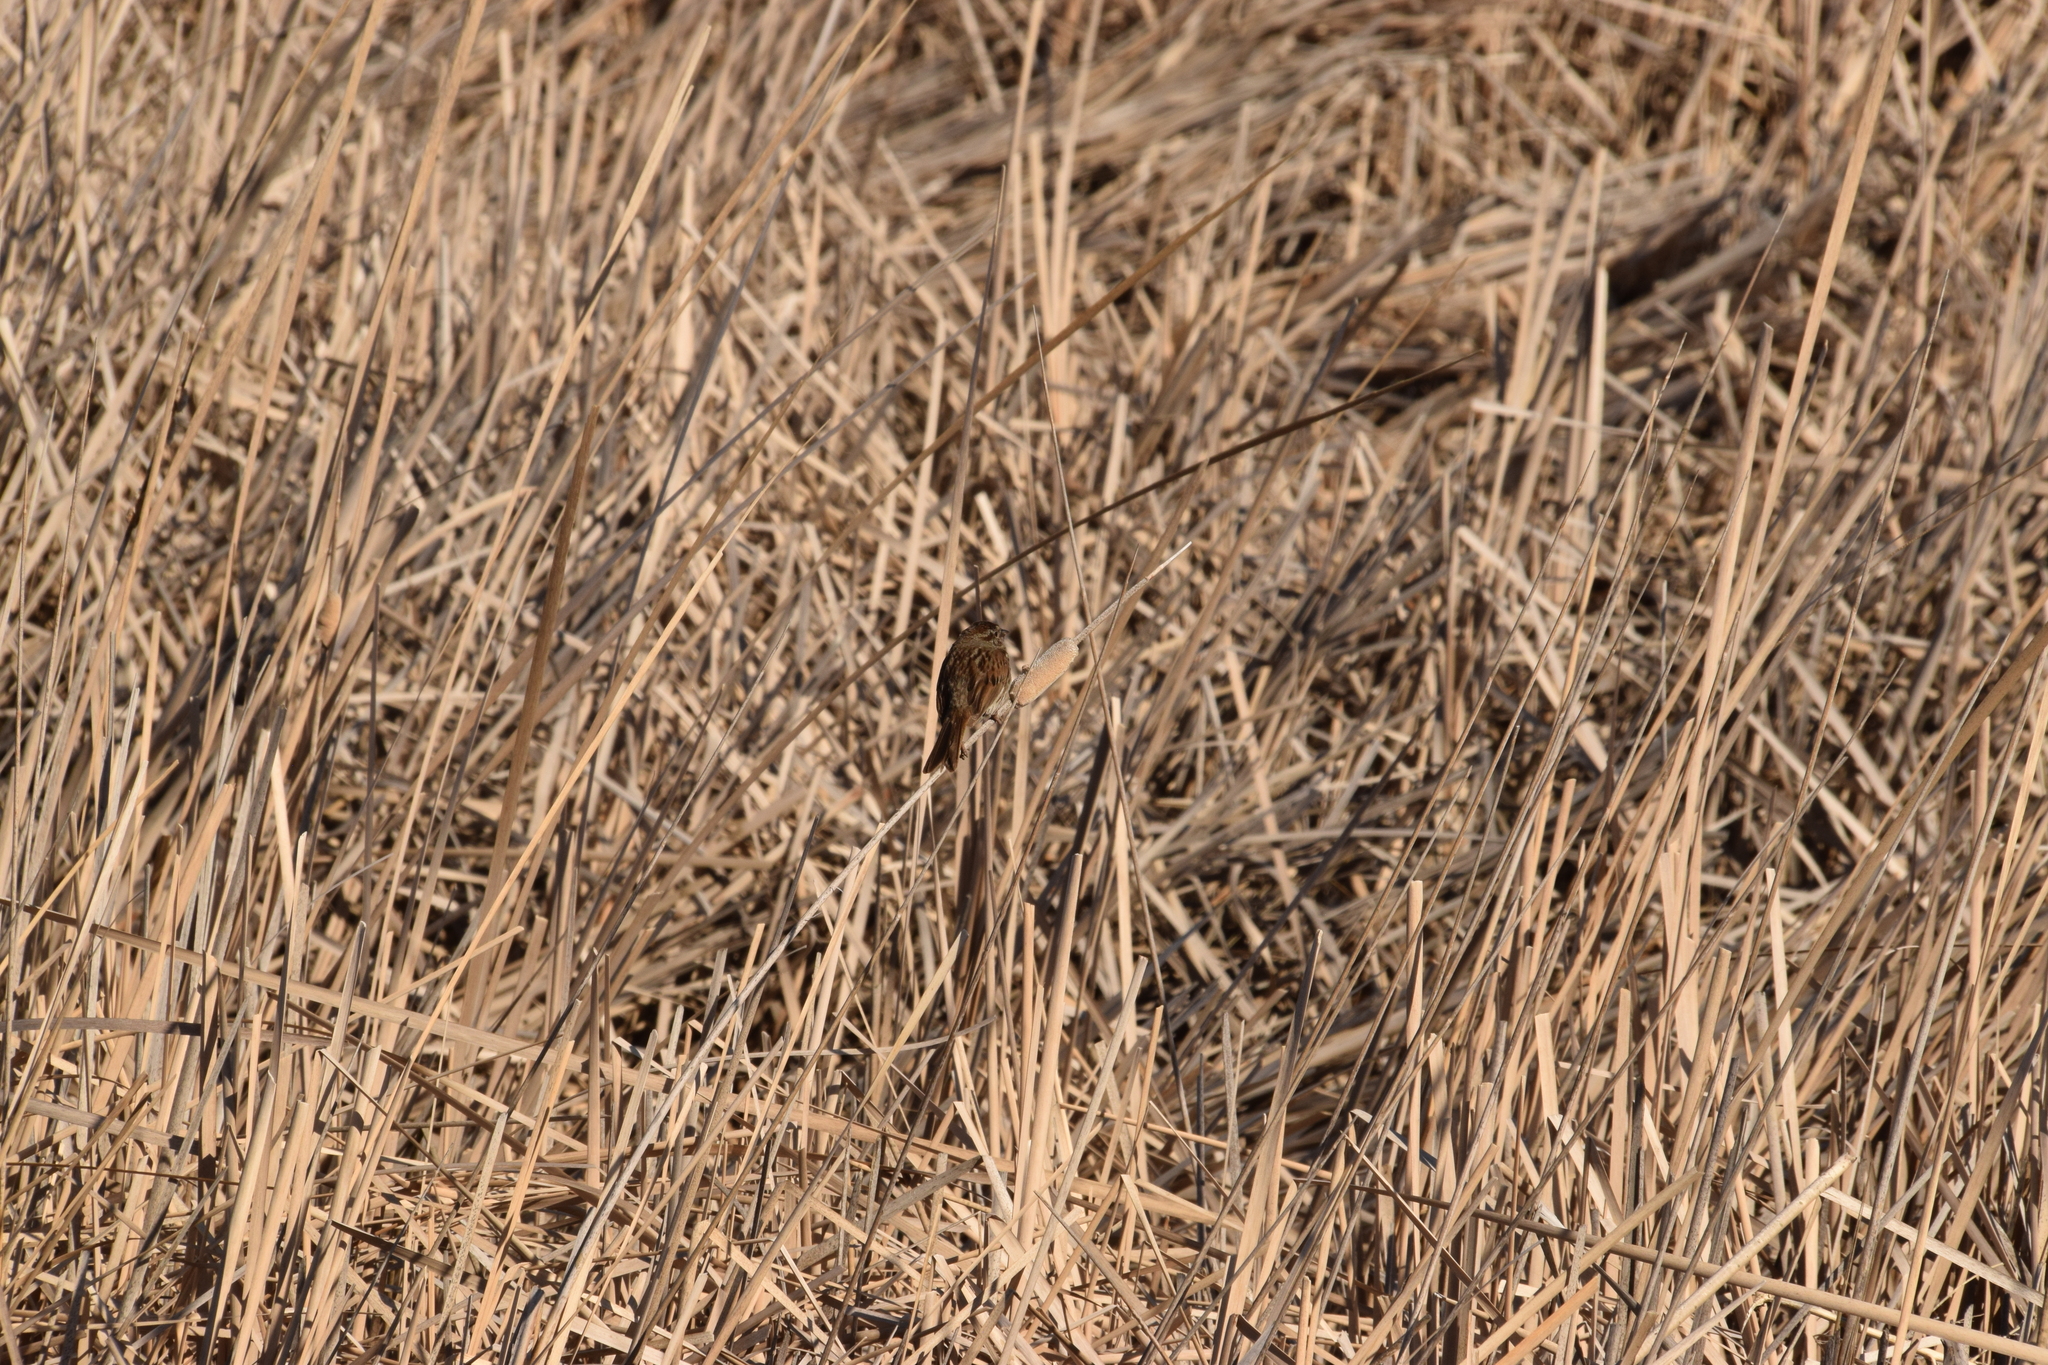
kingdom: Animalia
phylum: Chordata
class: Aves
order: Passeriformes
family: Passerellidae
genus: Melospiza
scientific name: Melospiza melodia
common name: Song sparrow
